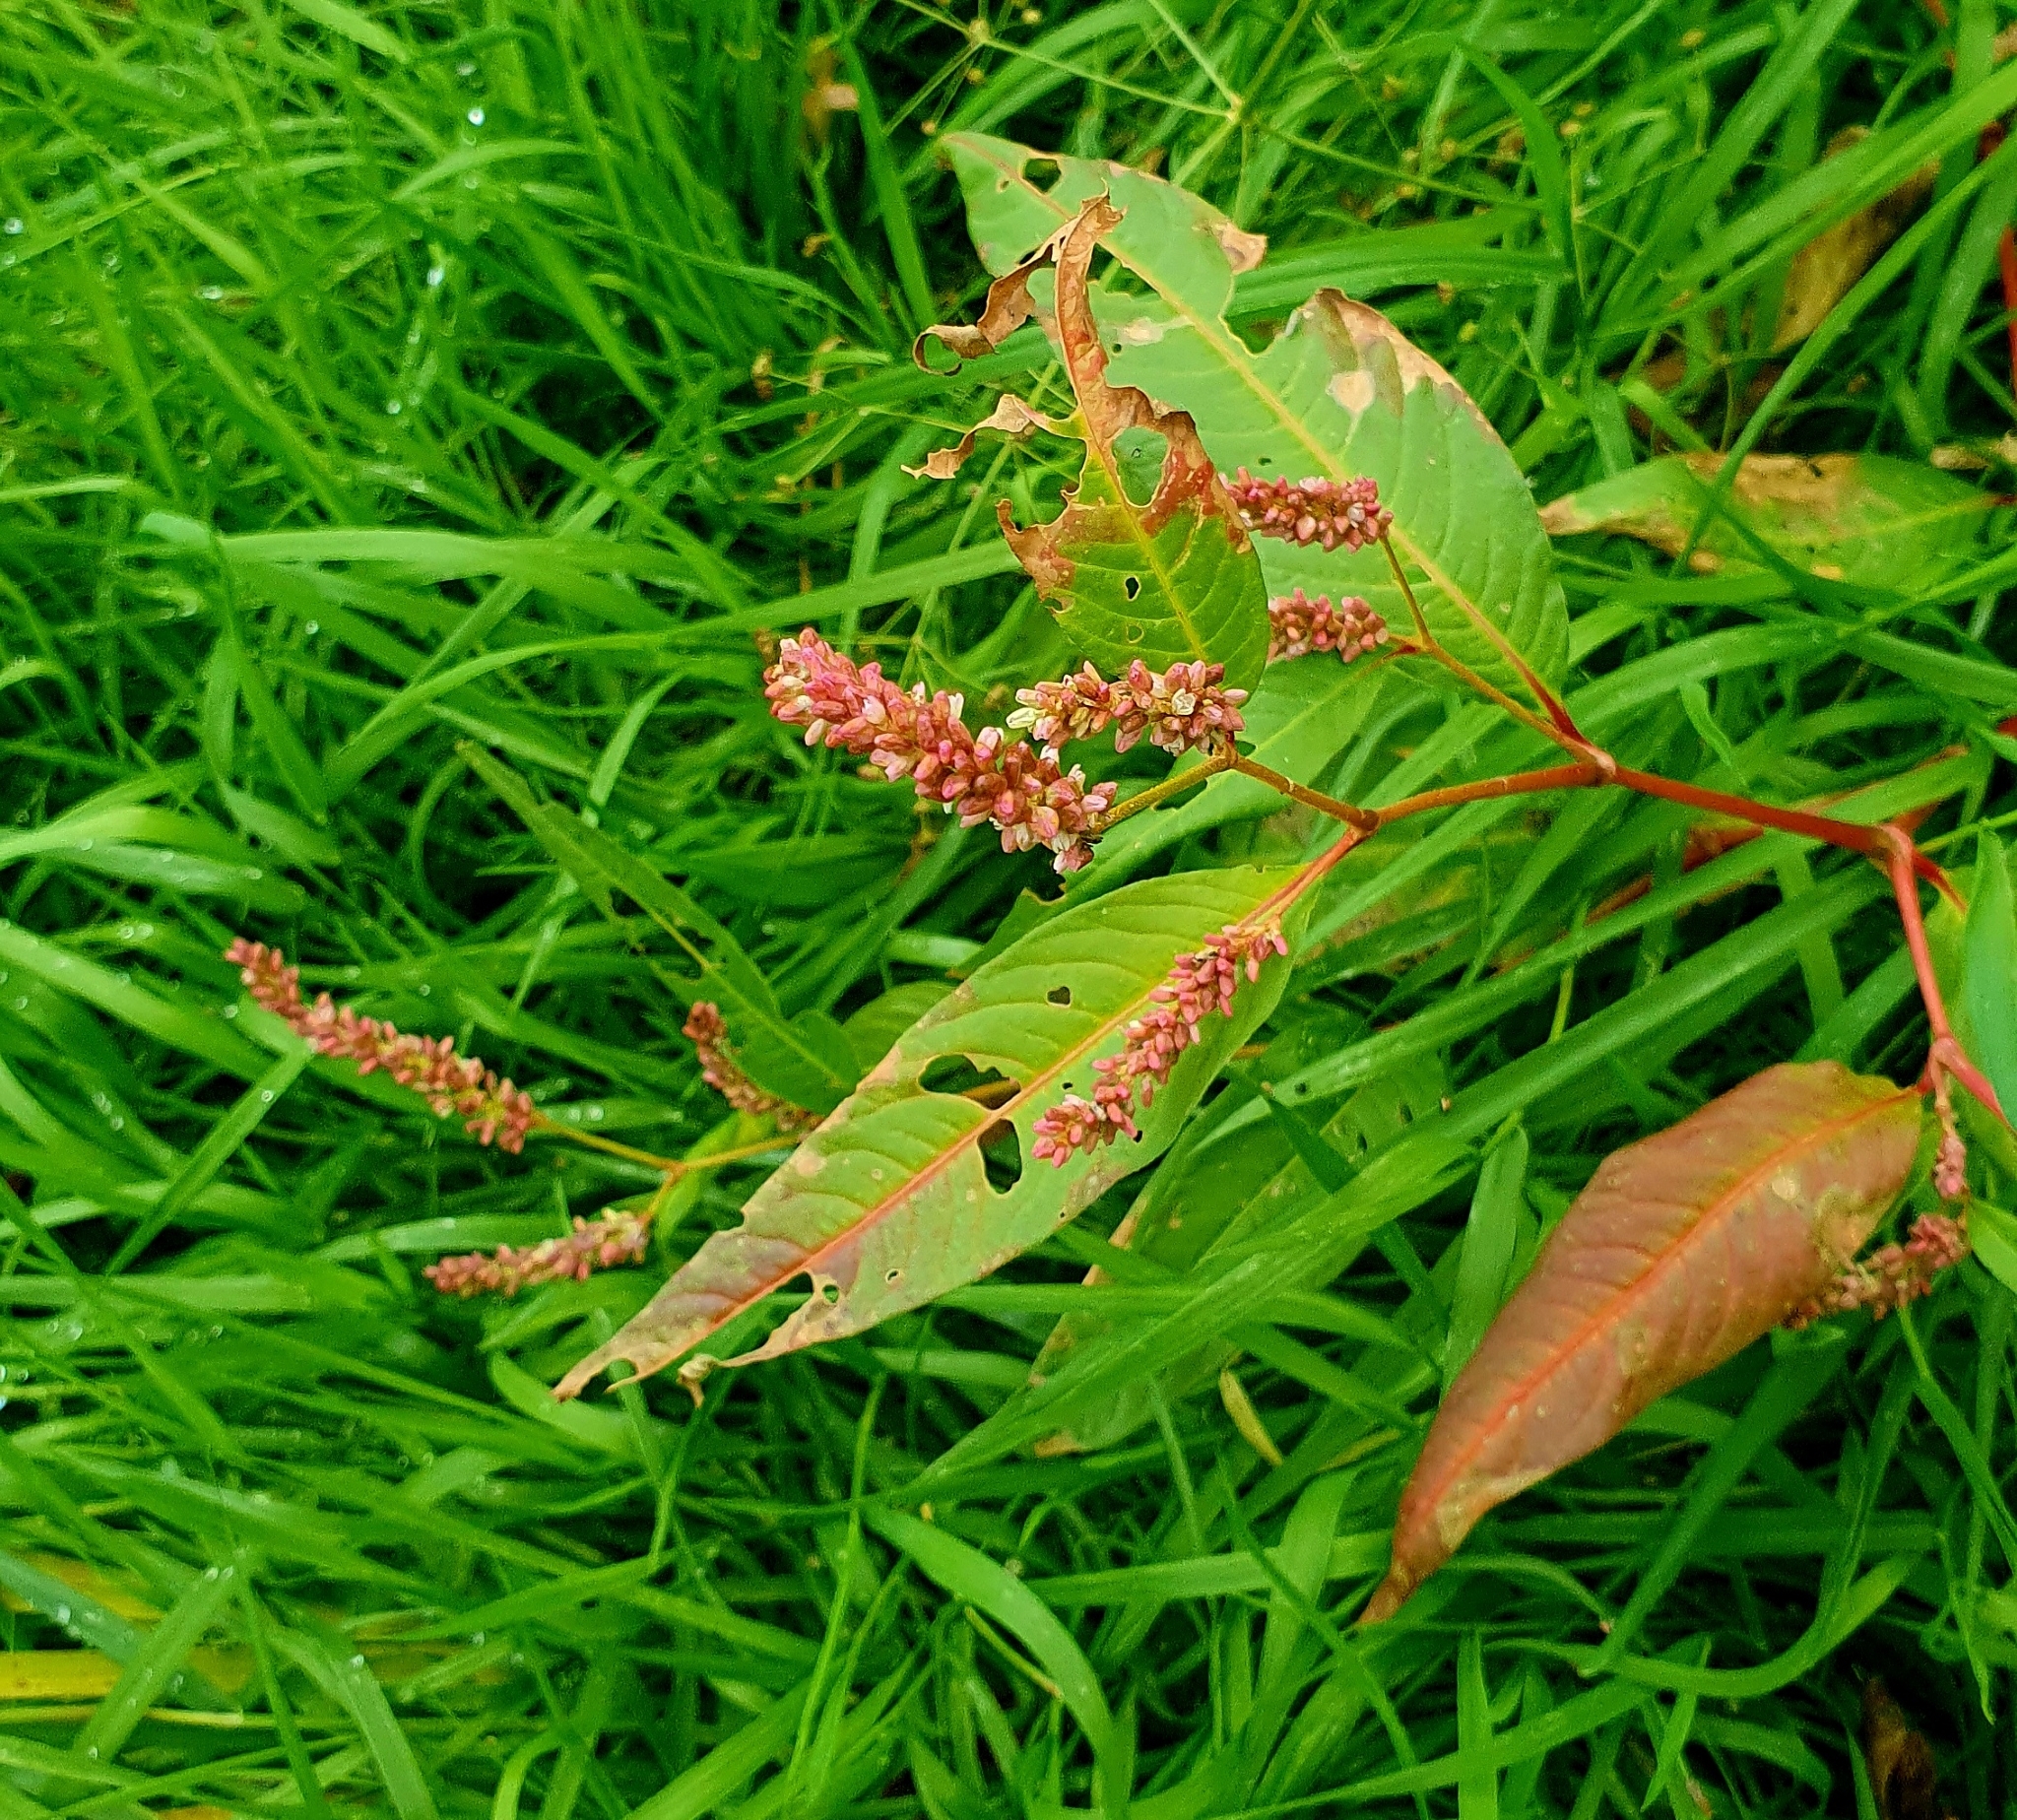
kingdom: Plantae
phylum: Tracheophyta
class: Magnoliopsida
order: Caryophyllales
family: Polygonaceae
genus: Persicaria
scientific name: Persicaria lapathifolia
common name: Curlytop knotweed
